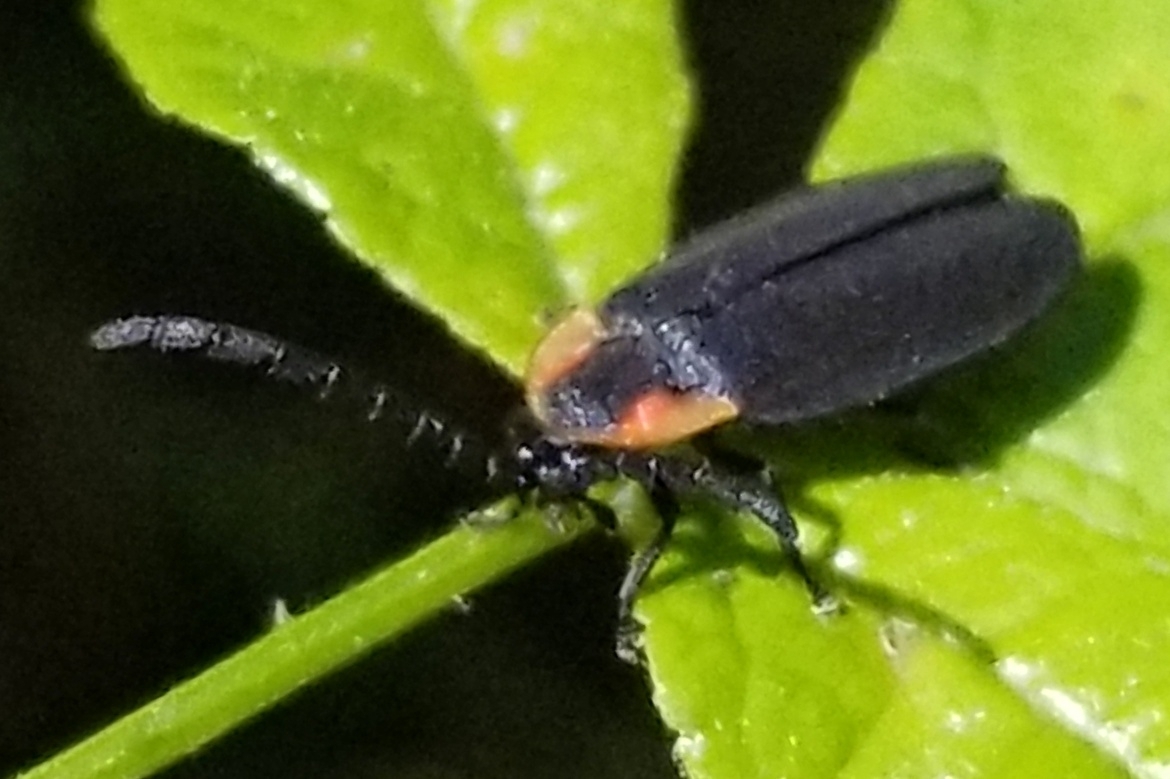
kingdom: Animalia
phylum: Arthropoda
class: Insecta
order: Coleoptera
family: Lampyridae
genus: Lucidota
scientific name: Lucidota atra
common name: Black firefly
